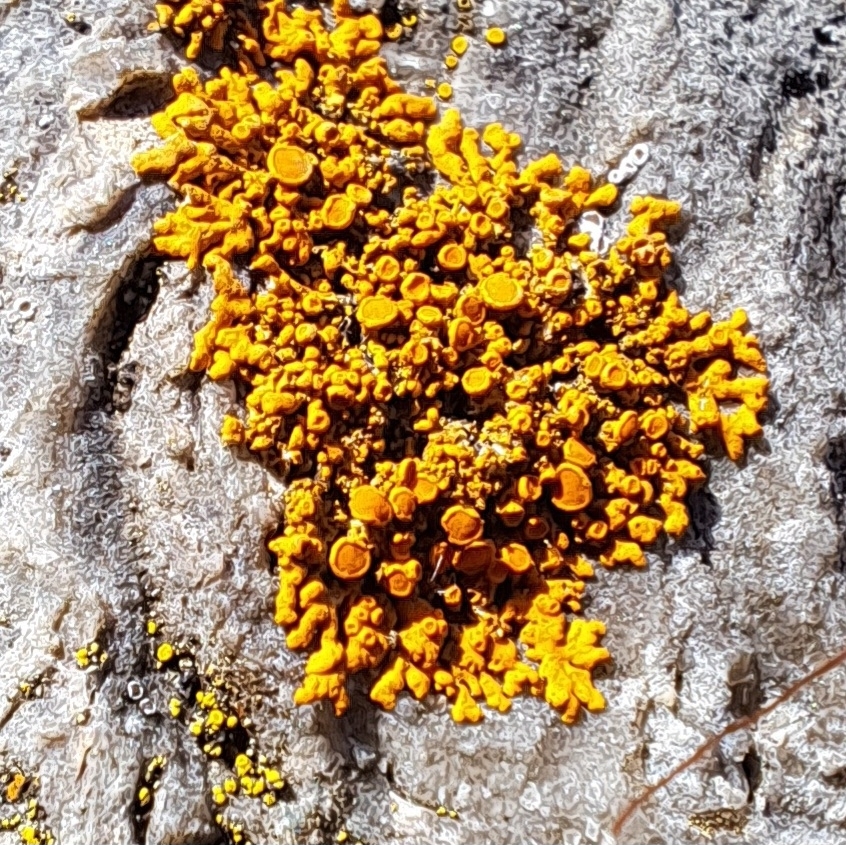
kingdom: Fungi
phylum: Ascomycota
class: Lecanoromycetes
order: Teloschistales
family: Teloschistaceae
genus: Xanthoria
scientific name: Xanthoria elegans
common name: Elegant sunburst lichen
